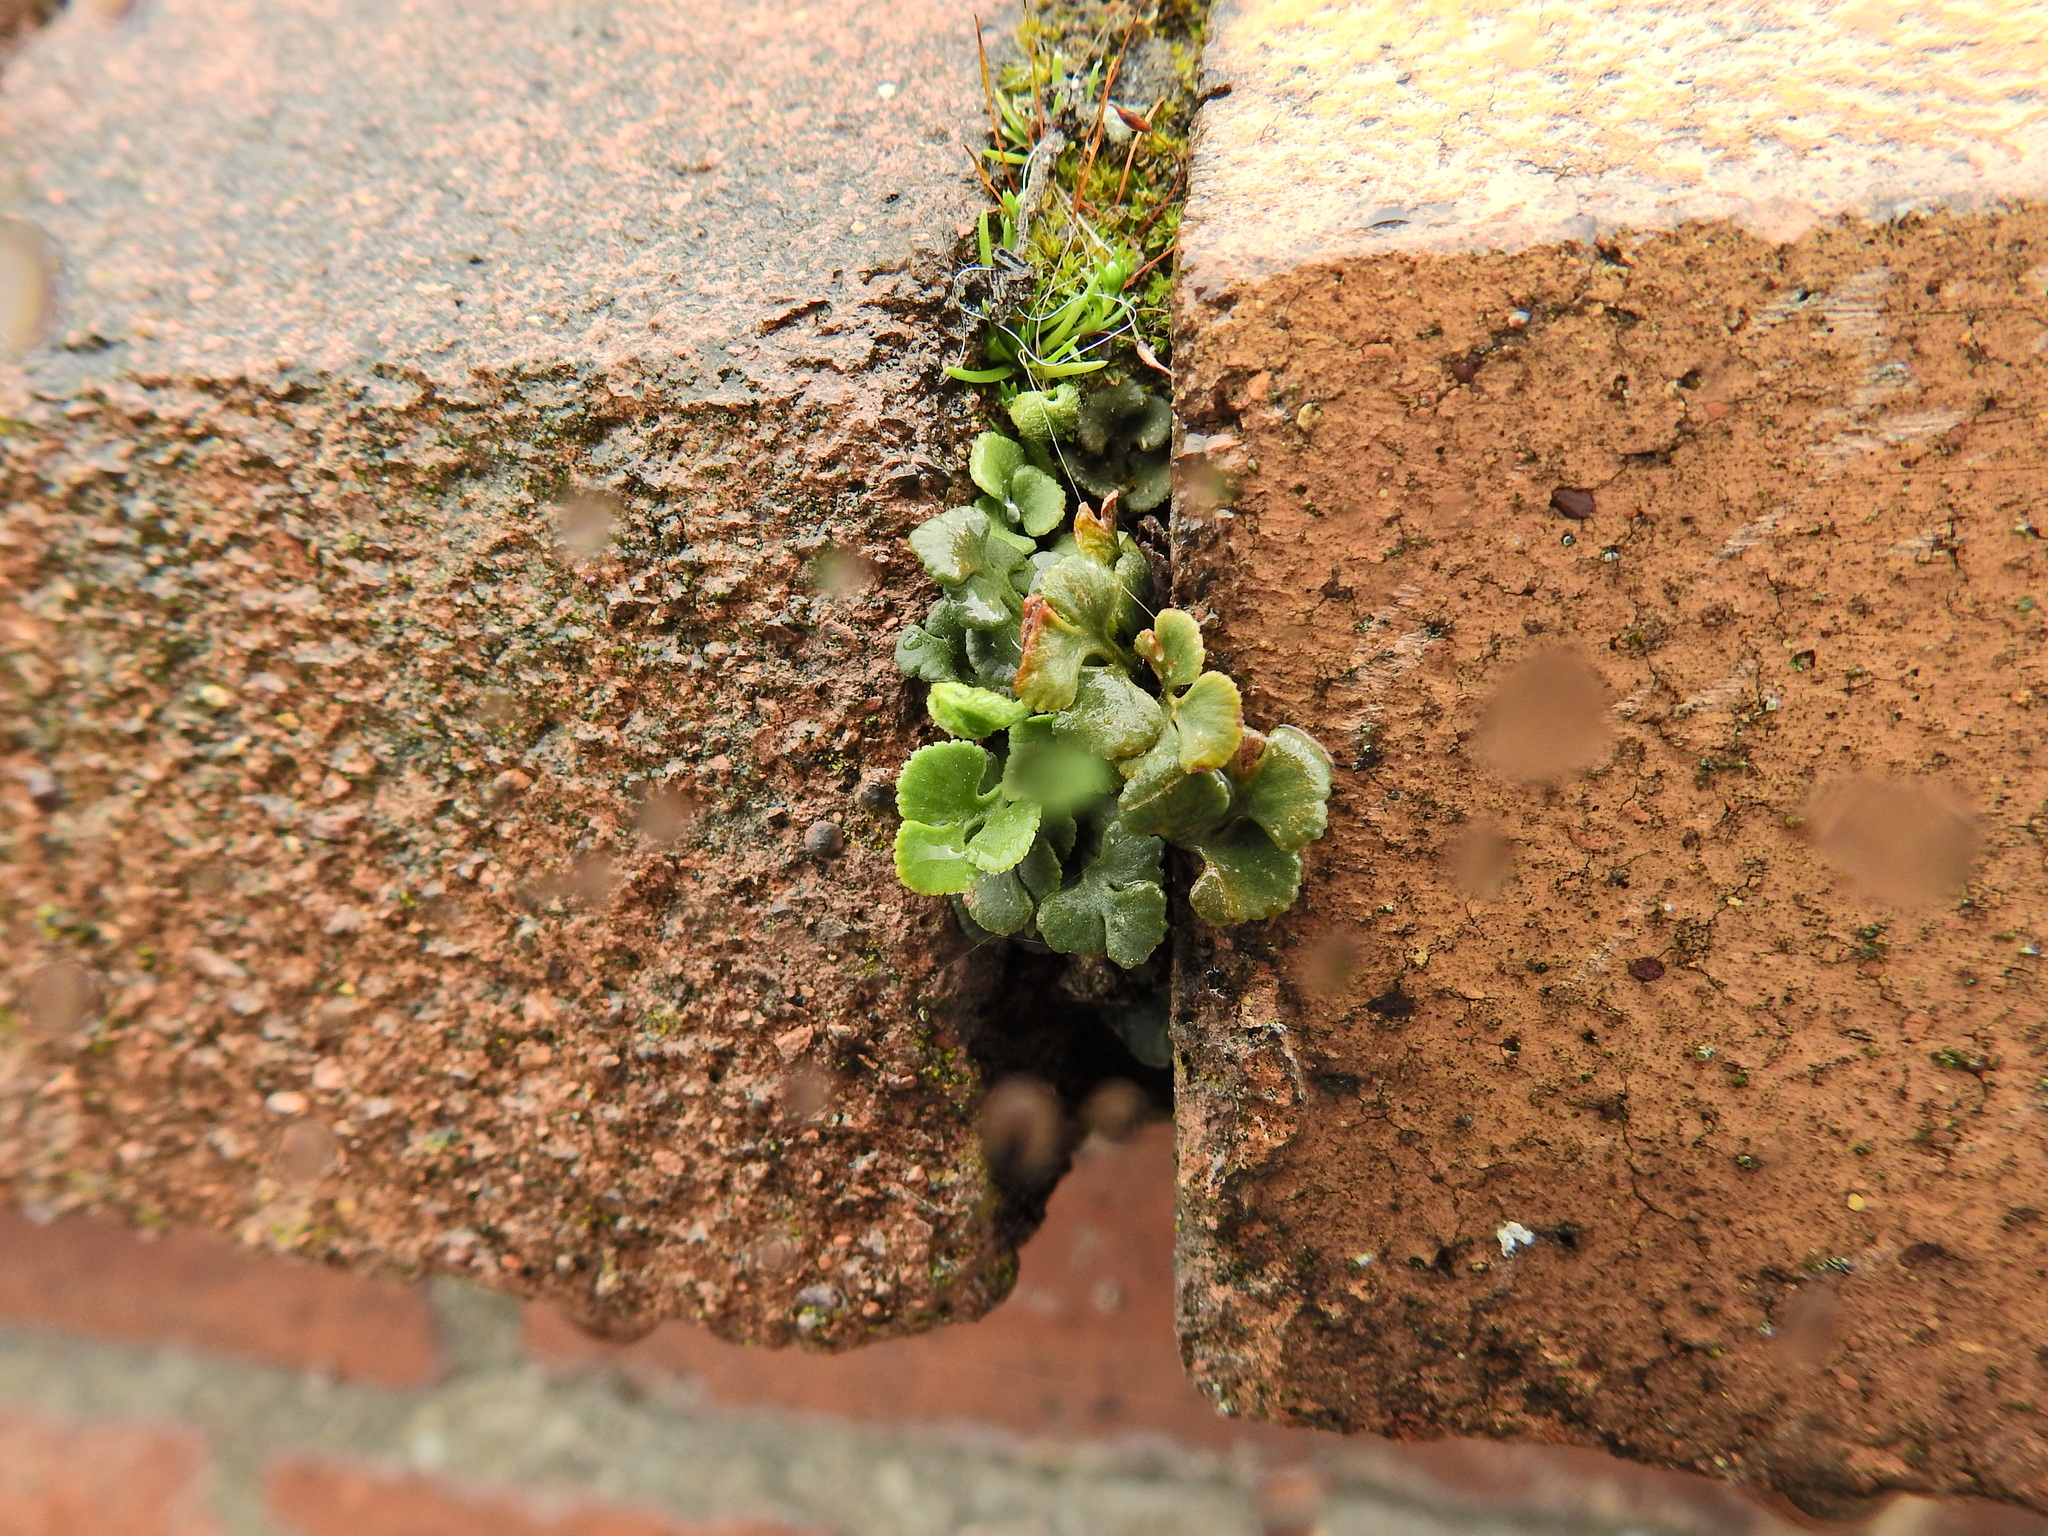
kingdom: Plantae
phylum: Tracheophyta
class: Polypodiopsida
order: Polypodiales
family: Aspleniaceae
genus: Asplenium
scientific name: Asplenium ruta-muraria
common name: Wall-rue
